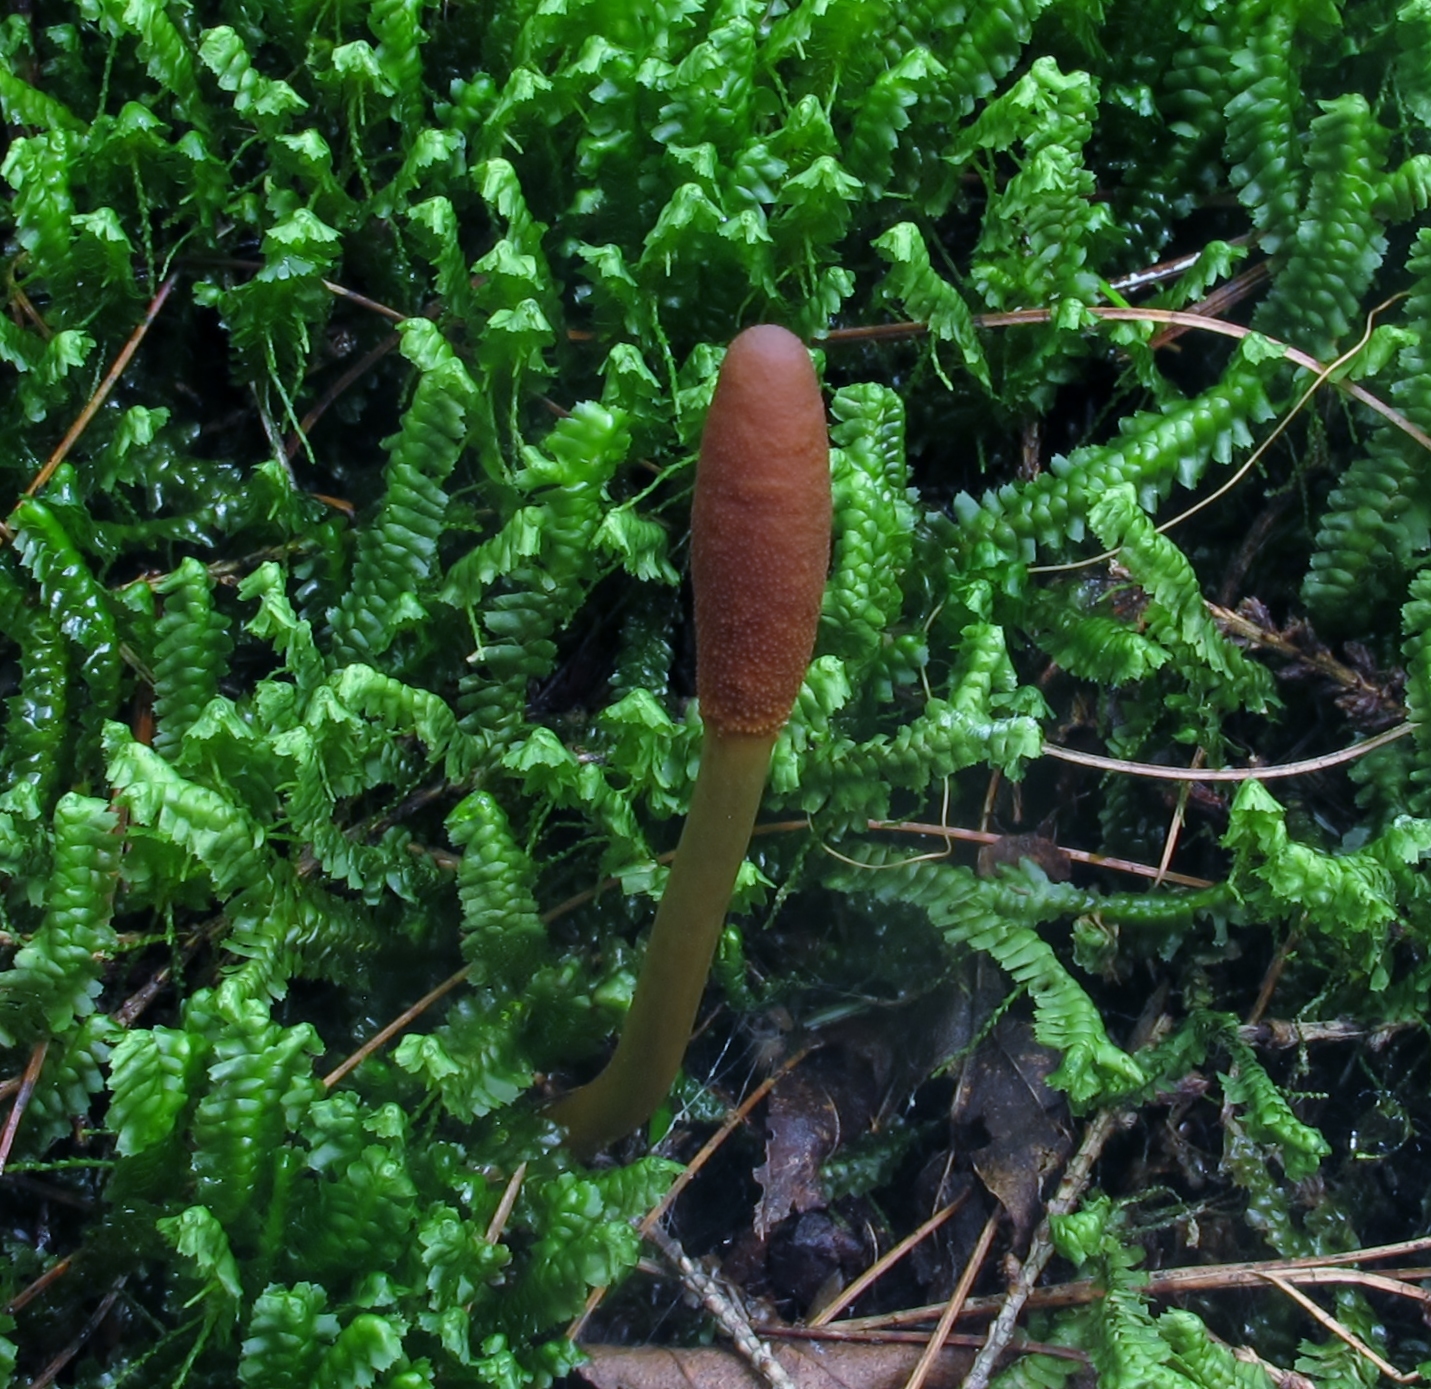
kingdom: Fungi
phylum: Ascomycota
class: Sordariomycetes
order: Hypocreales
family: Ophiocordycipitaceae
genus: Tolypocladium
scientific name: Tolypocladium ophioglossoides
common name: Snaketongue truffleclub
